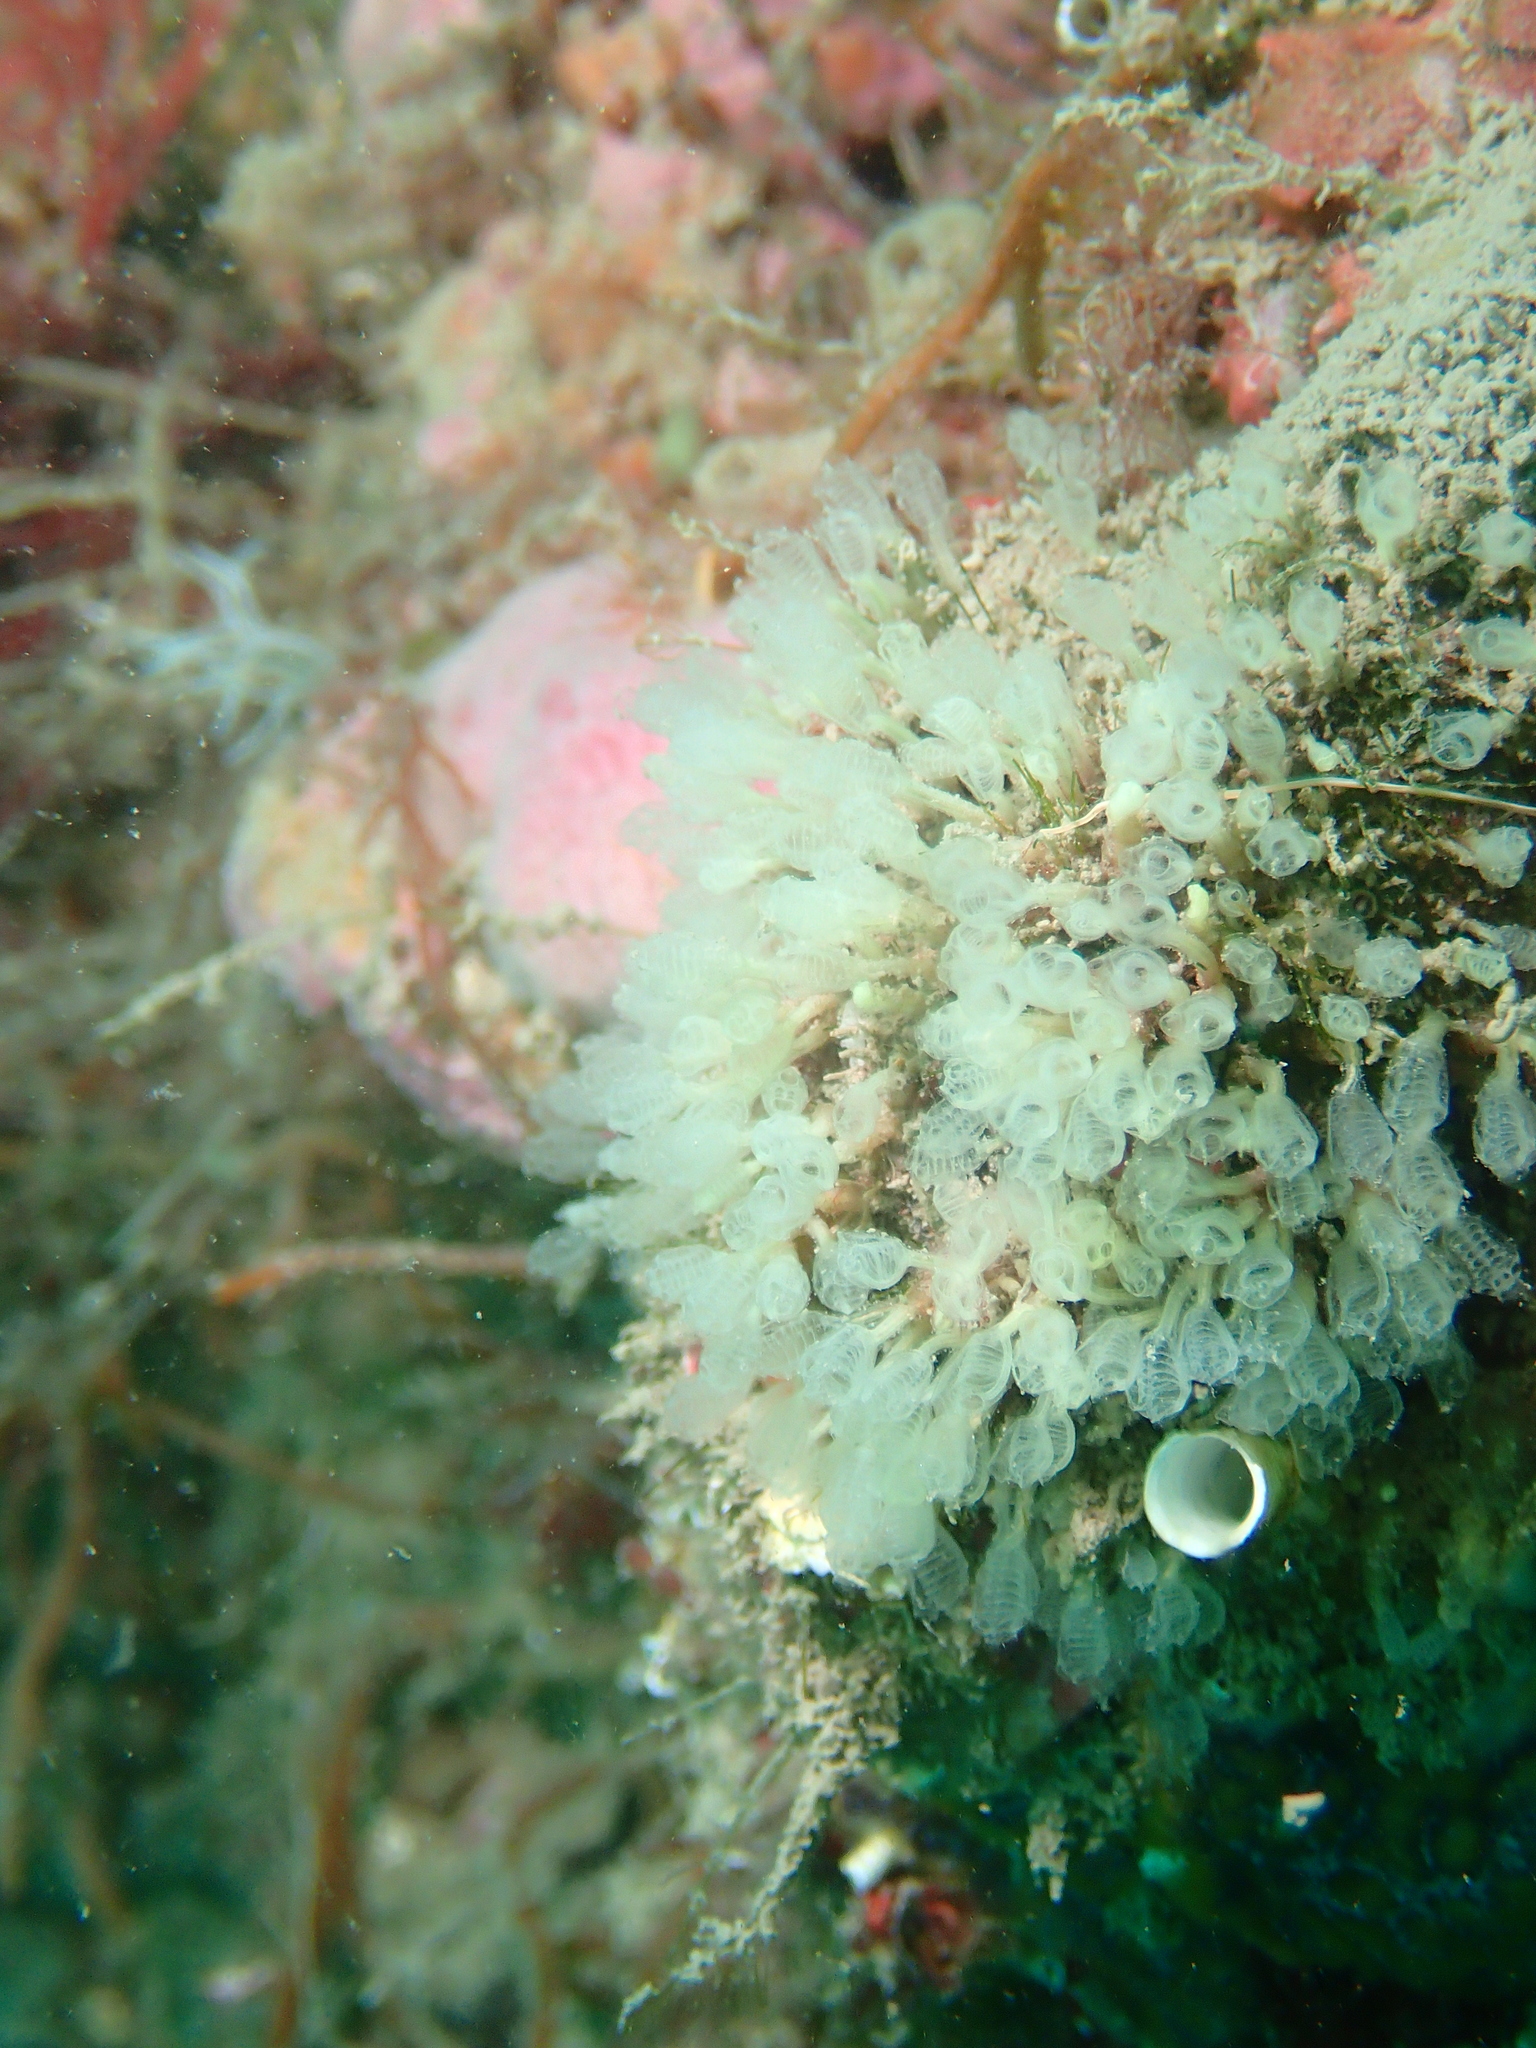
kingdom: Animalia
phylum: Chordata
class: Ascidiacea
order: Aplousobranchia
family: Clavelinidae
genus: Pycnoclavella
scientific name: Pycnoclavella communis
